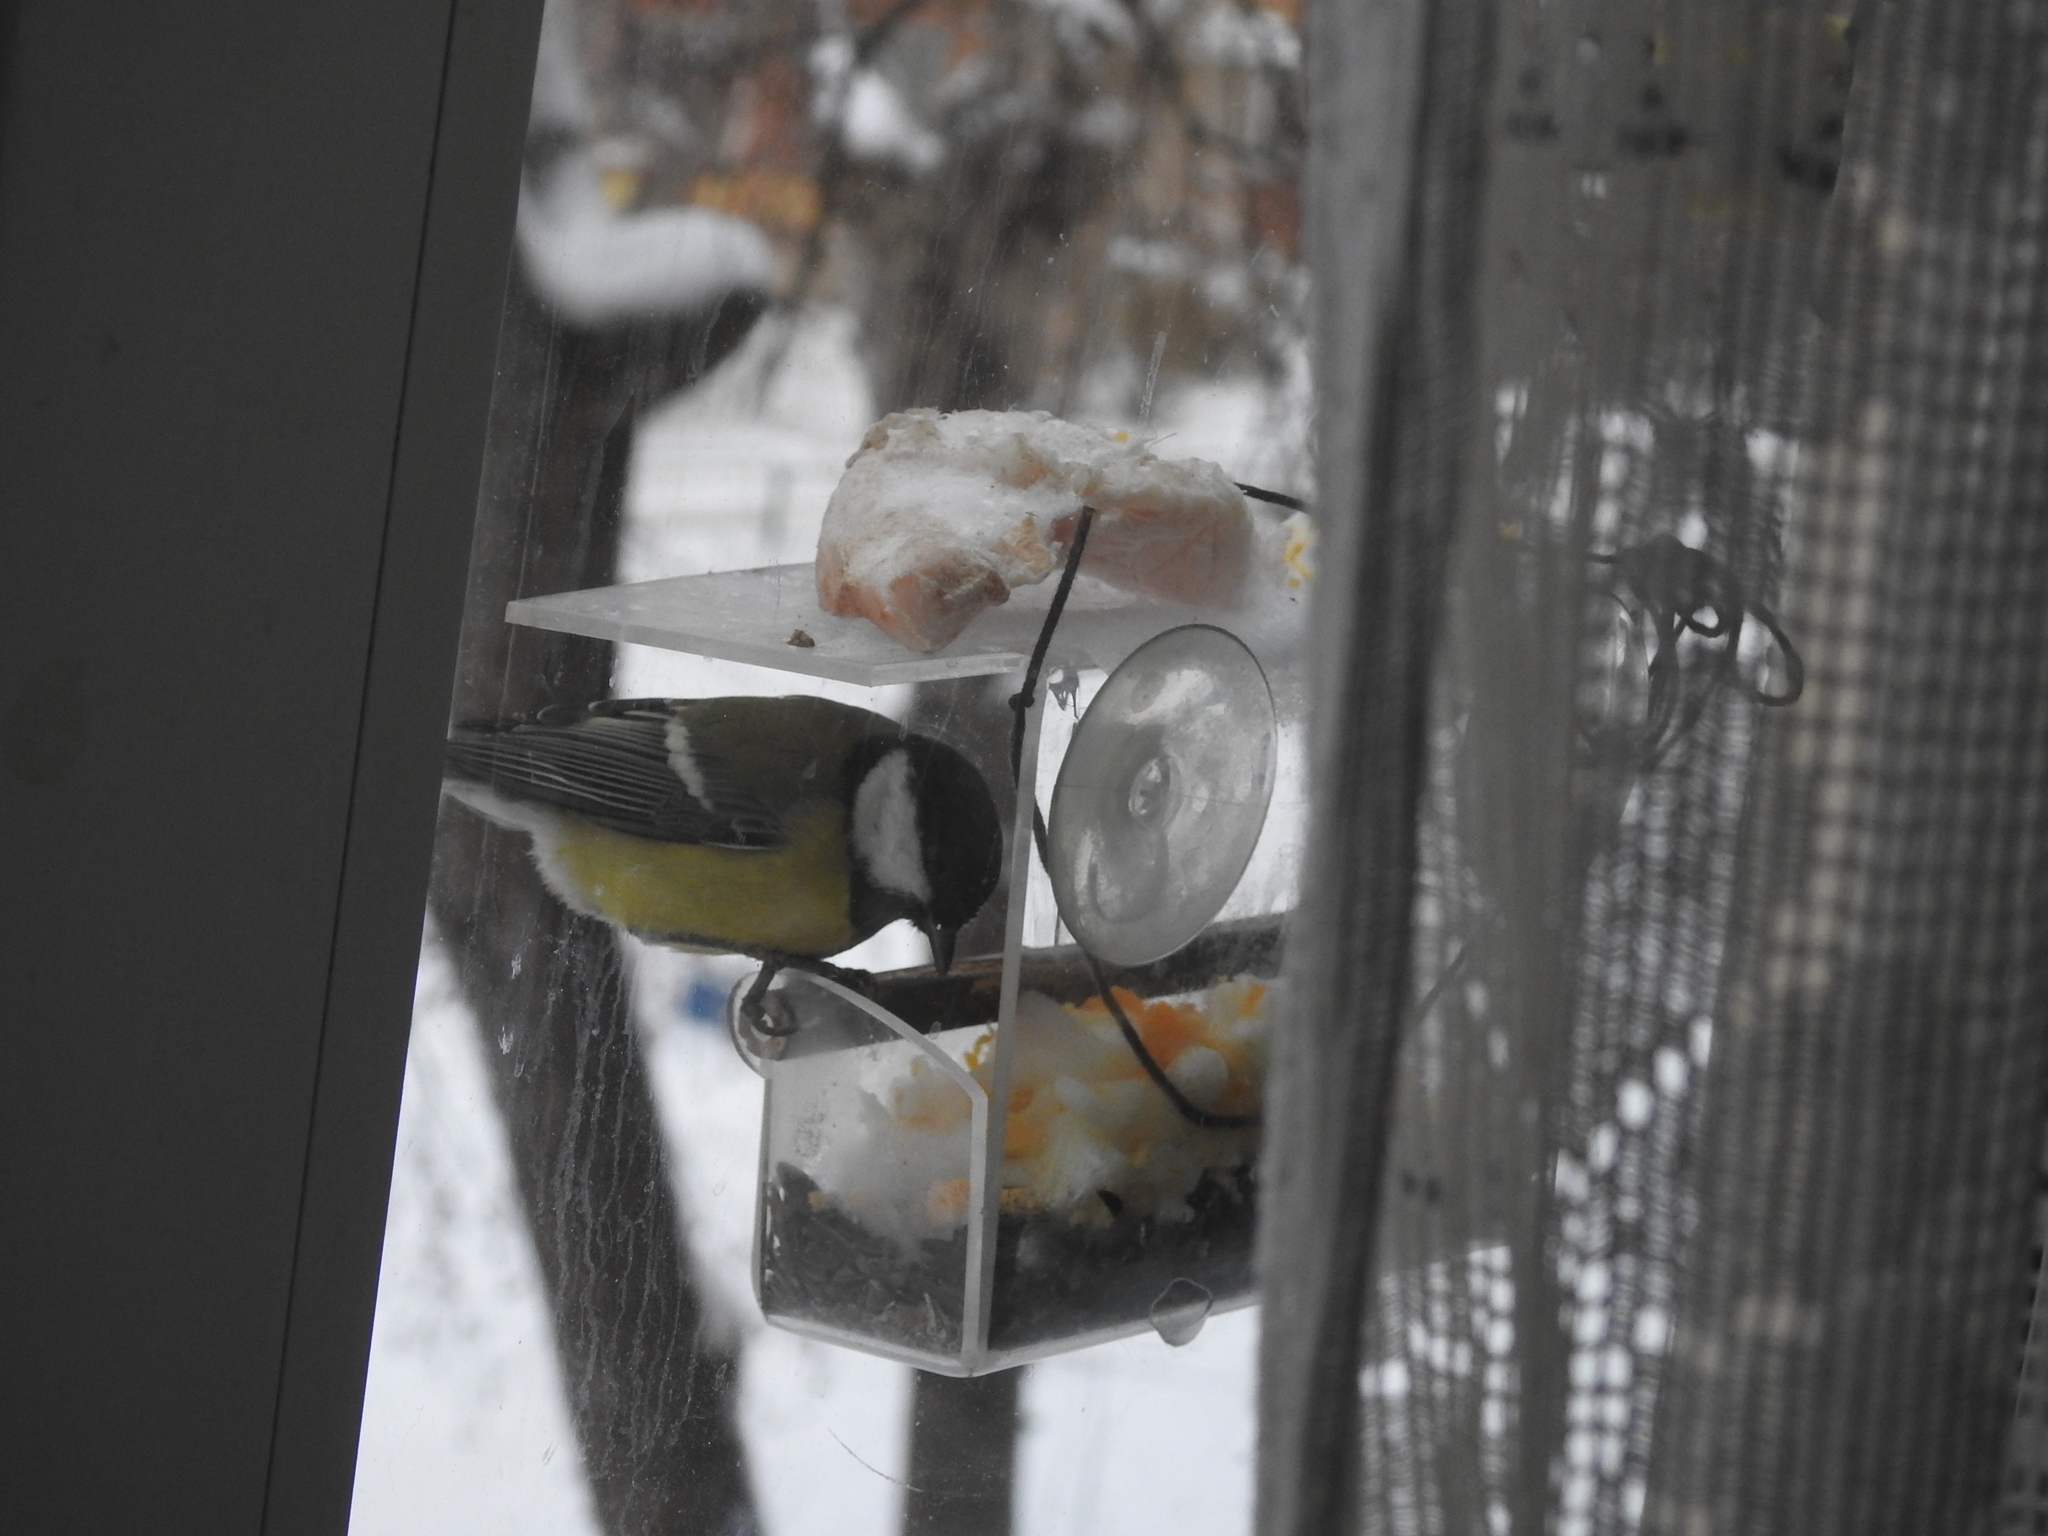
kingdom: Animalia
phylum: Chordata
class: Aves
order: Passeriformes
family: Paridae
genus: Parus
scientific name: Parus major
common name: Great tit
